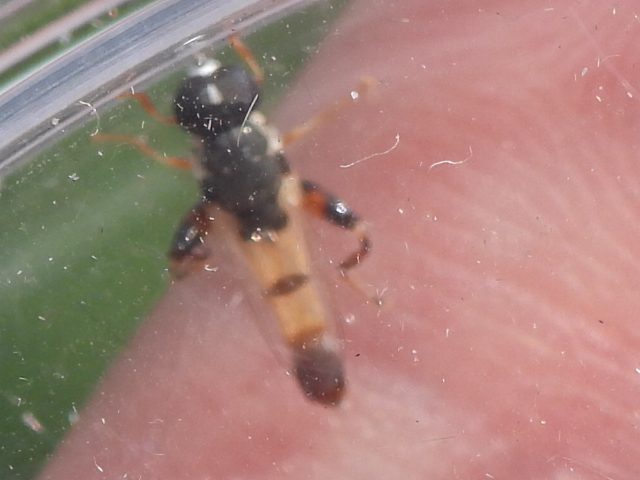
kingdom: Animalia
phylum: Arthropoda
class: Insecta
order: Diptera
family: Syrphidae
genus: Syritta
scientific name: Syritta flaviventris
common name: Syrphid fly
